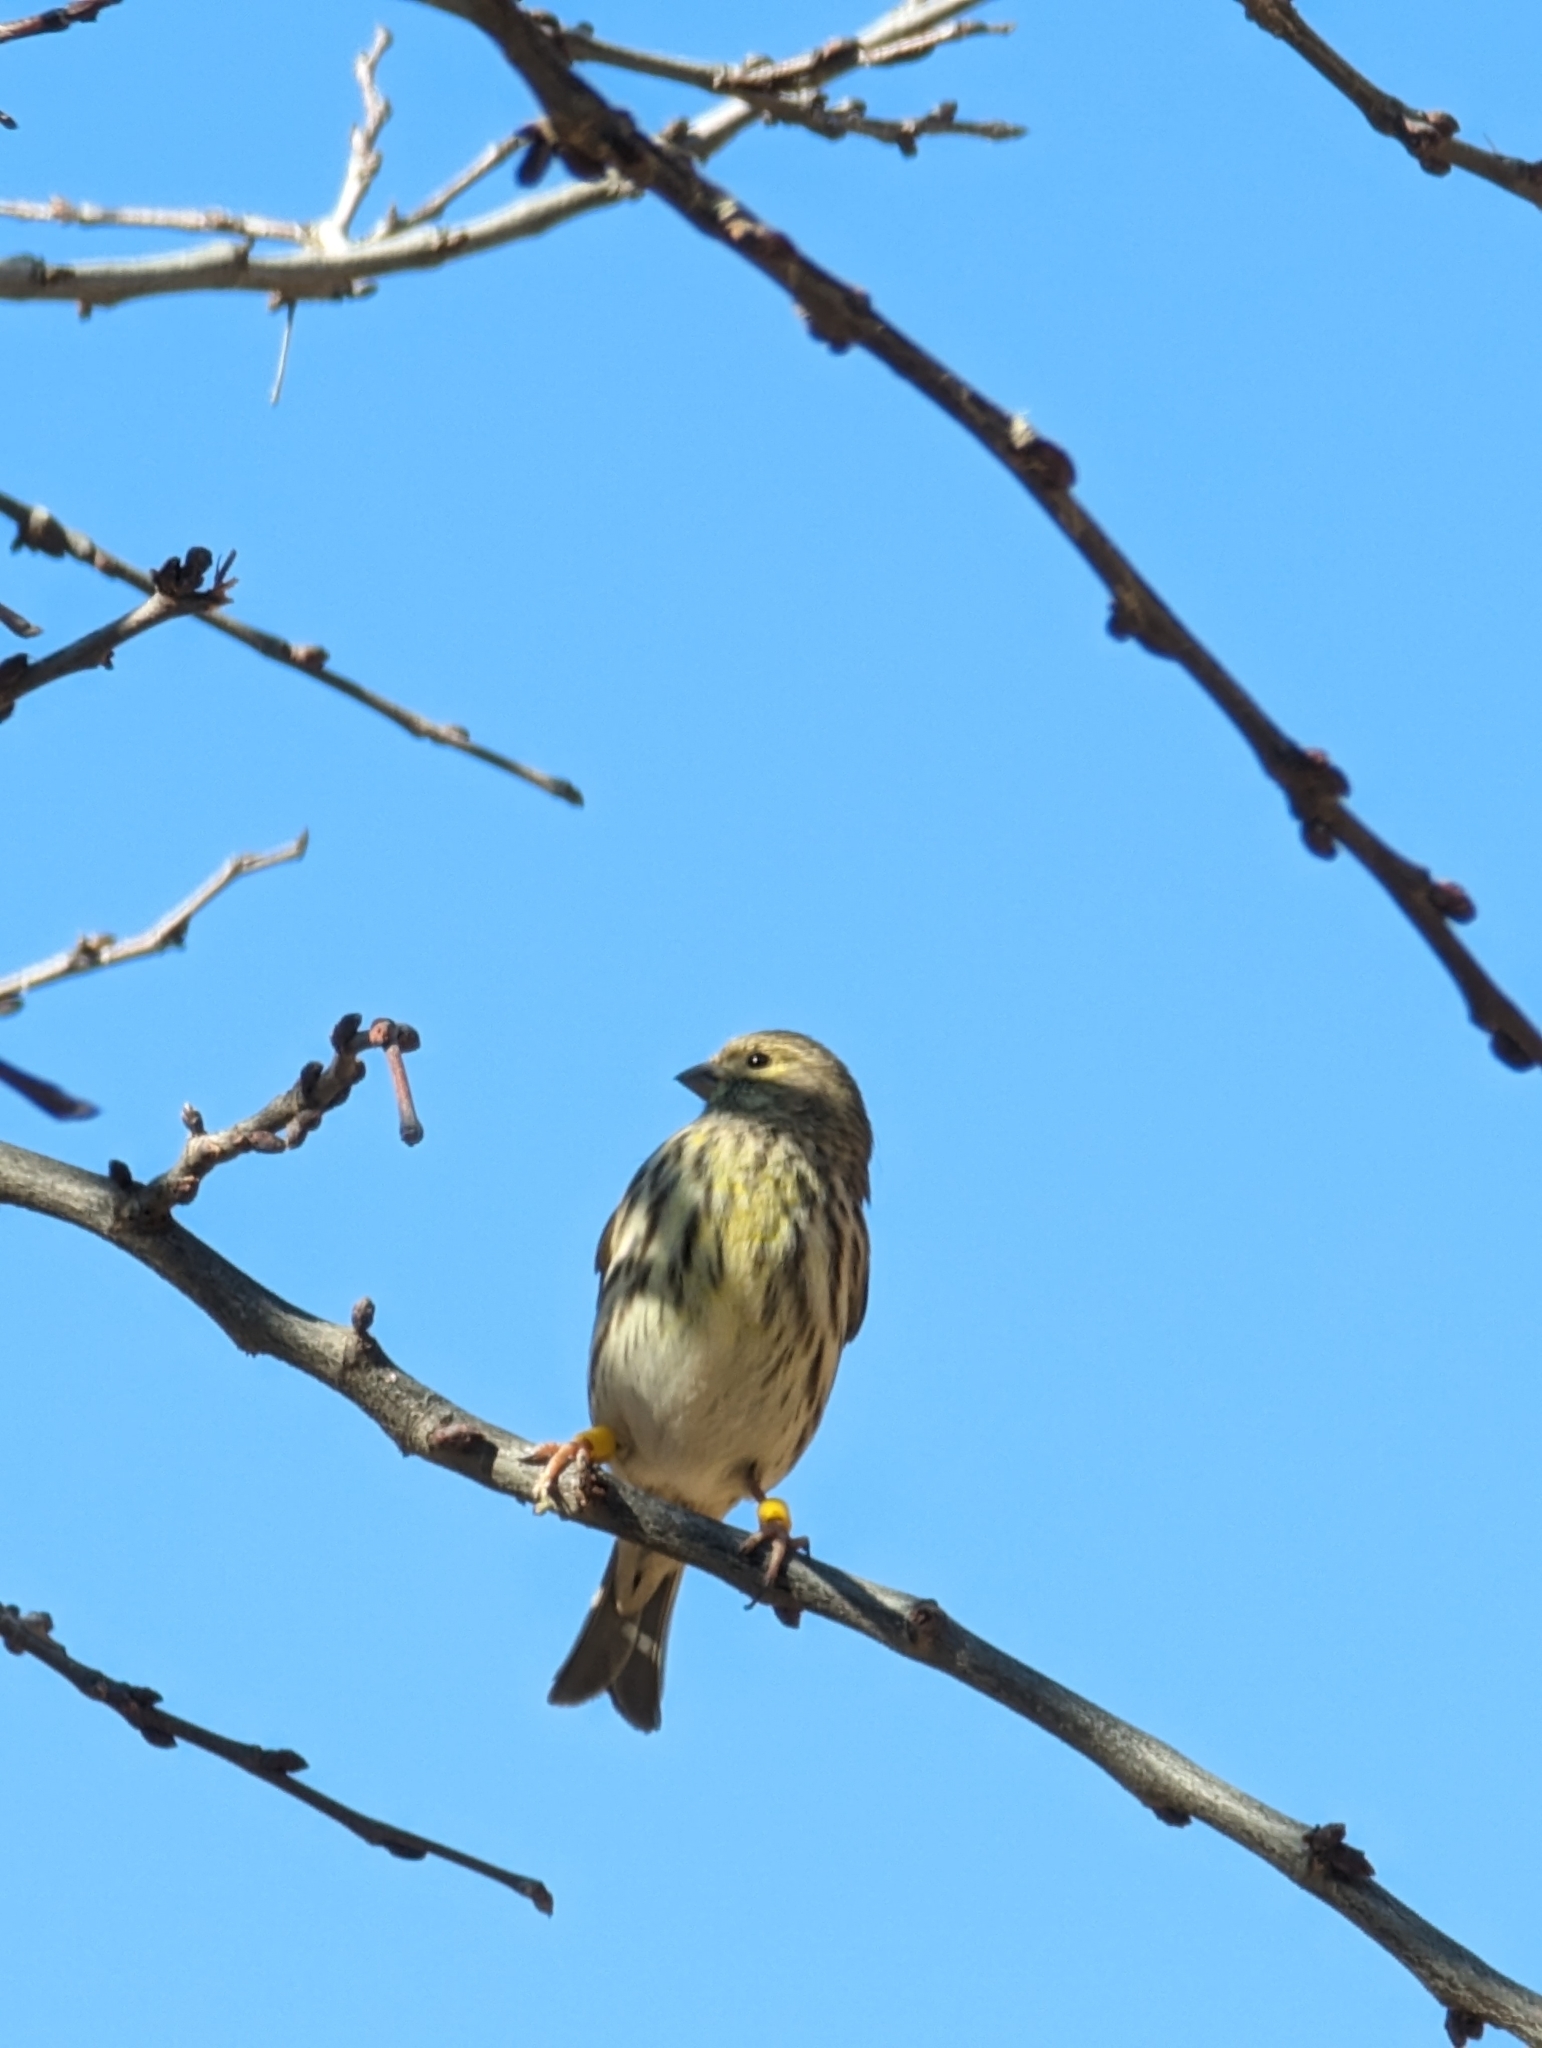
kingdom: Animalia
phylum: Chordata
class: Aves
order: Passeriformes
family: Fringillidae
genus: Serinus
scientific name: Serinus serinus
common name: European serin
